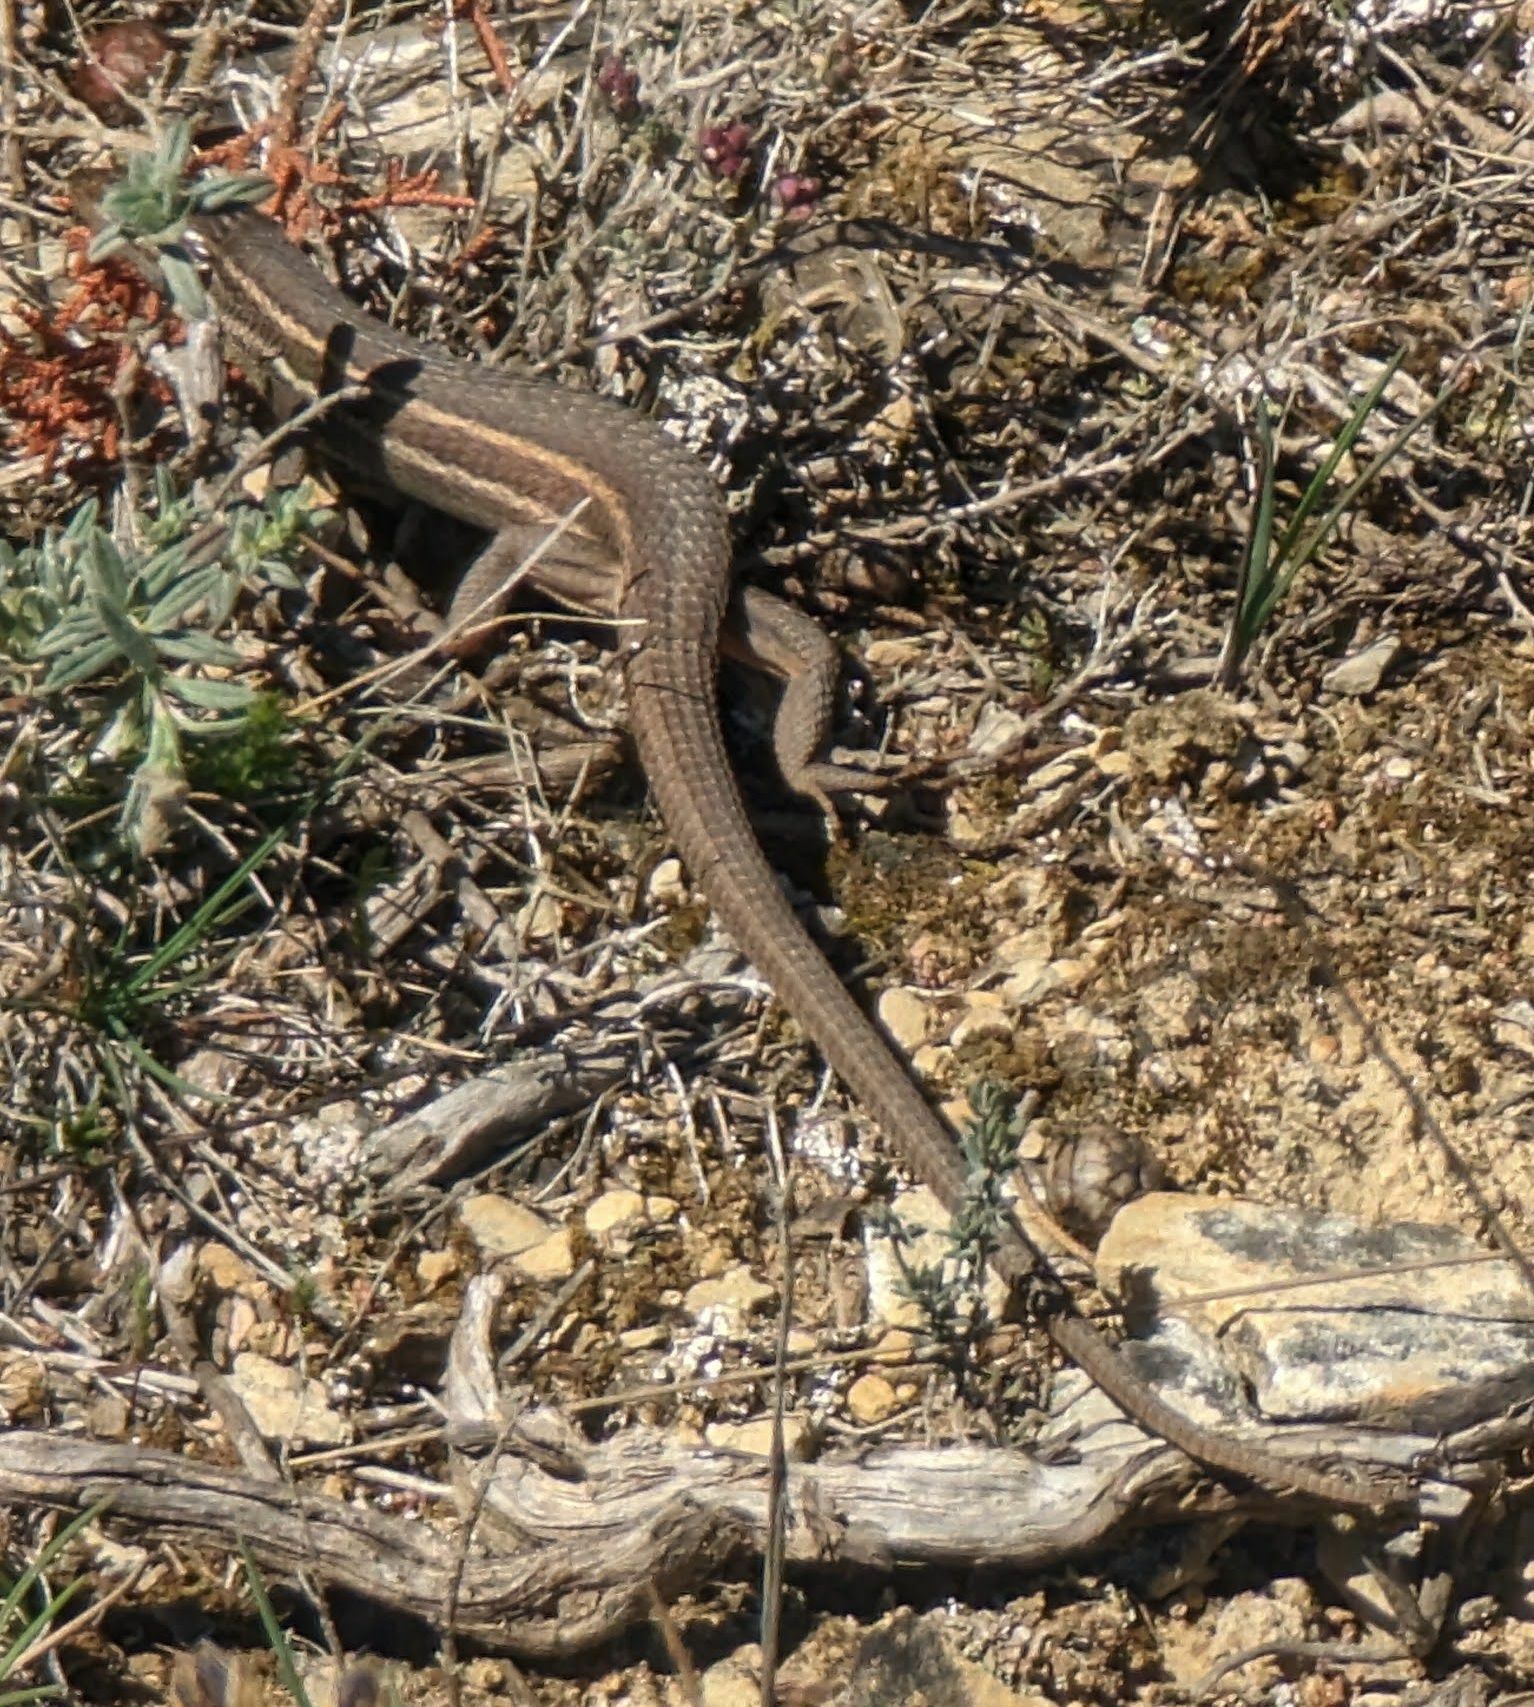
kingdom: Animalia
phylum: Chordata
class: Squamata
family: Lacertidae
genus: Psammodromus
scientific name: Psammodromus algirus
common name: Algerian psammodromus
